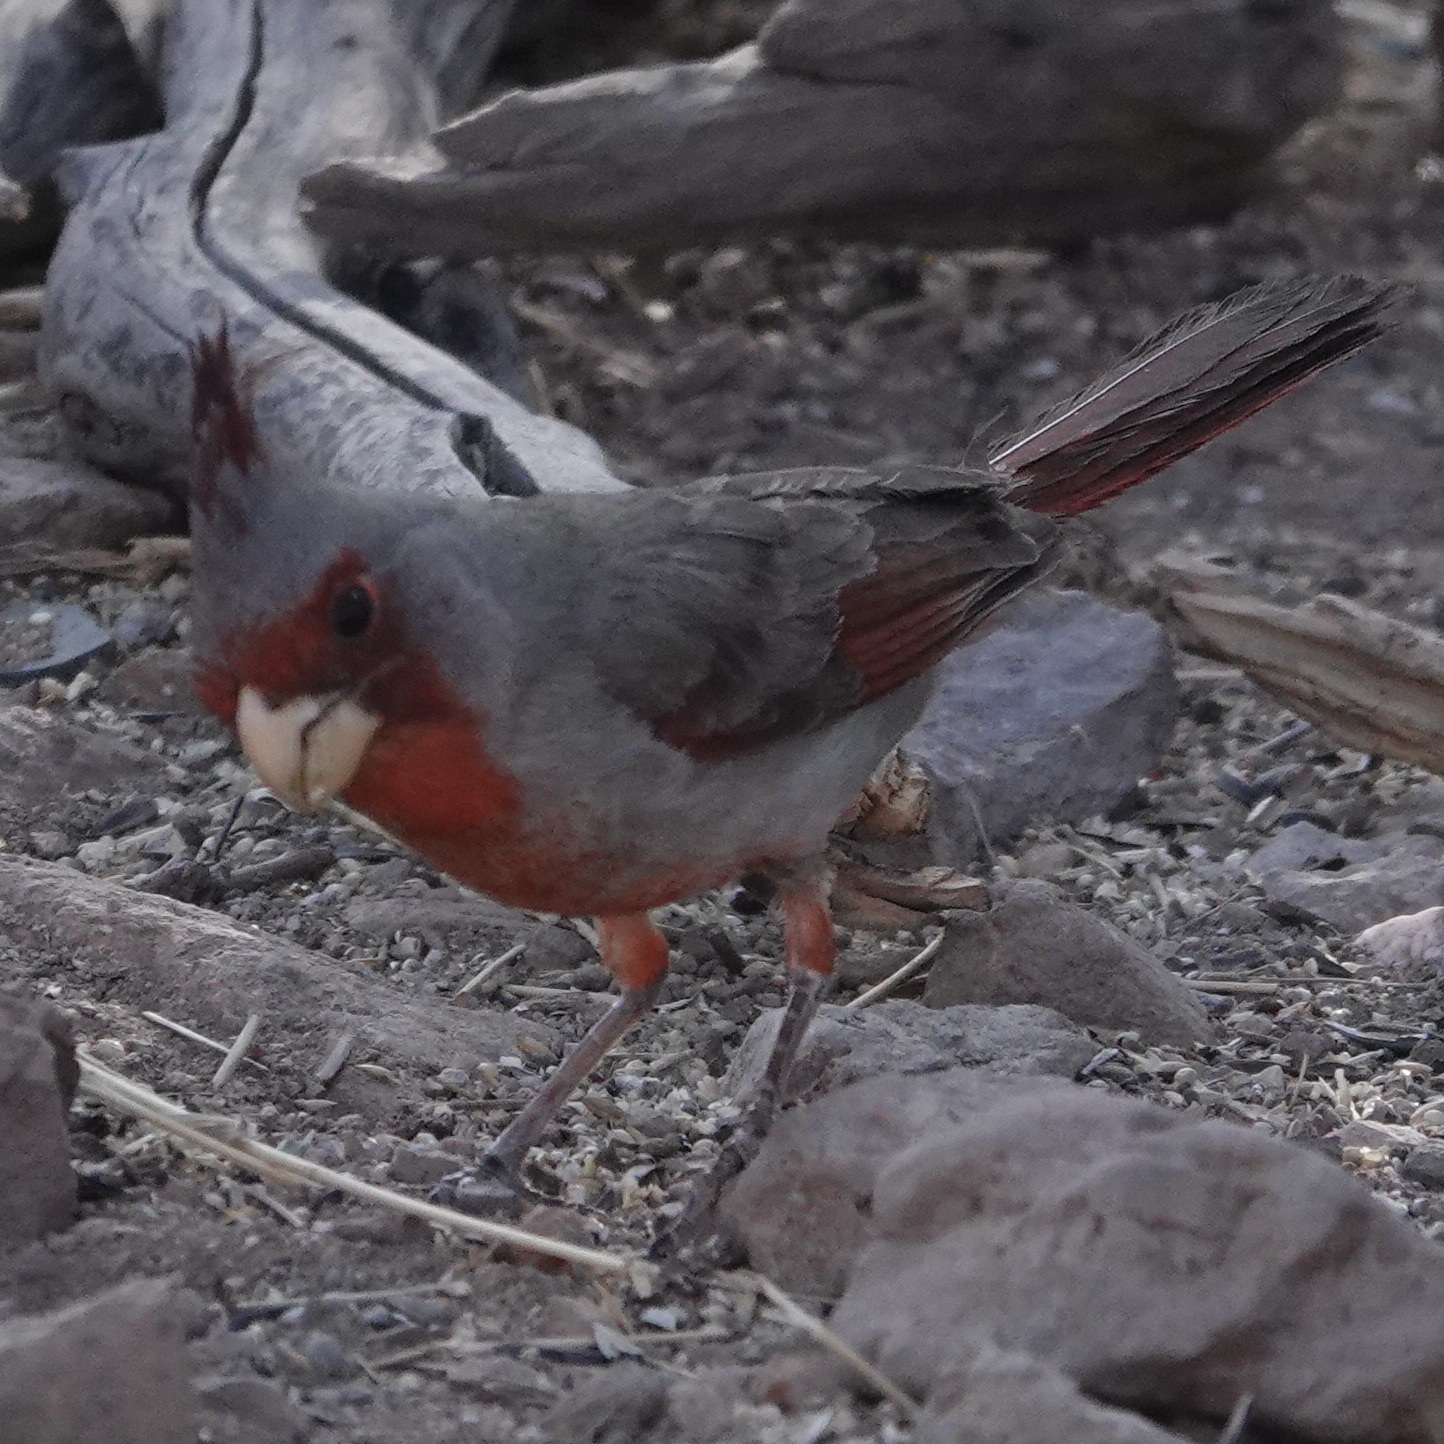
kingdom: Animalia
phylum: Chordata
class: Aves
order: Passeriformes
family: Cardinalidae
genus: Cardinalis
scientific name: Cardinalis sinuatus
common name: Pyrrhuloxia
